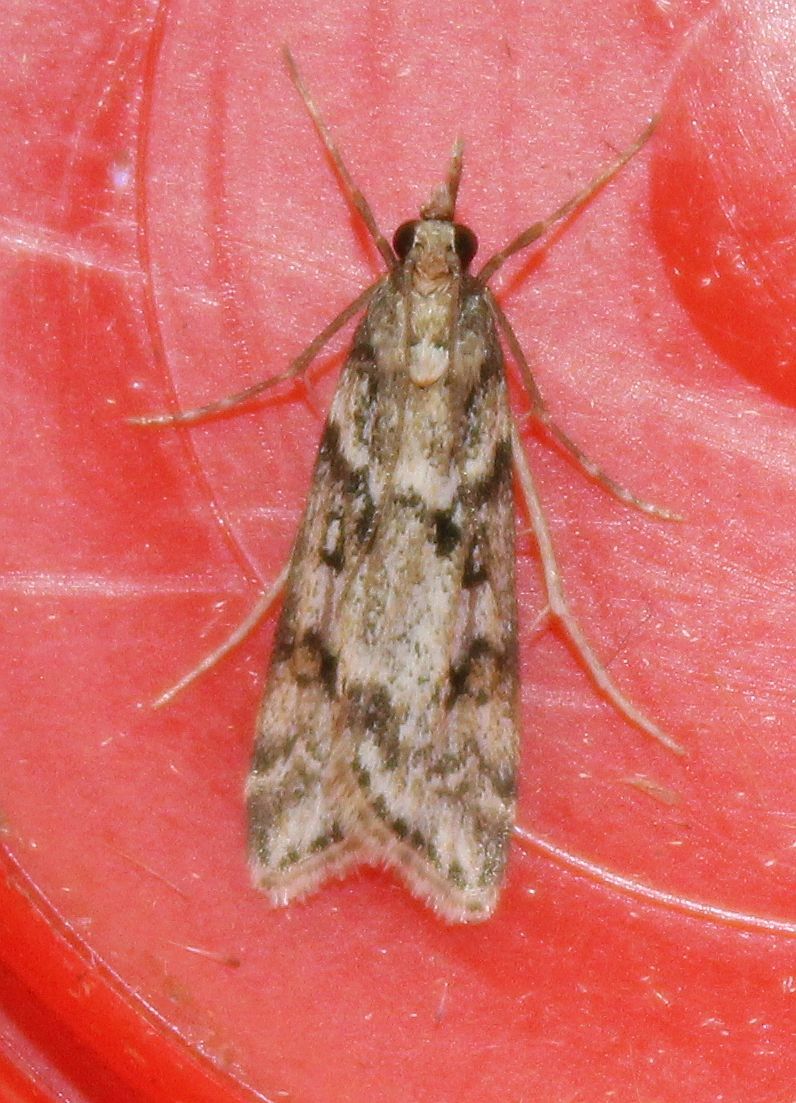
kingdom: Animalia
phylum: Arthropoda
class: Insecta
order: Lepidoptera
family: Crambidae
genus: Eudonia
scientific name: Eudonia angustea
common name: Narrow-winged grey
